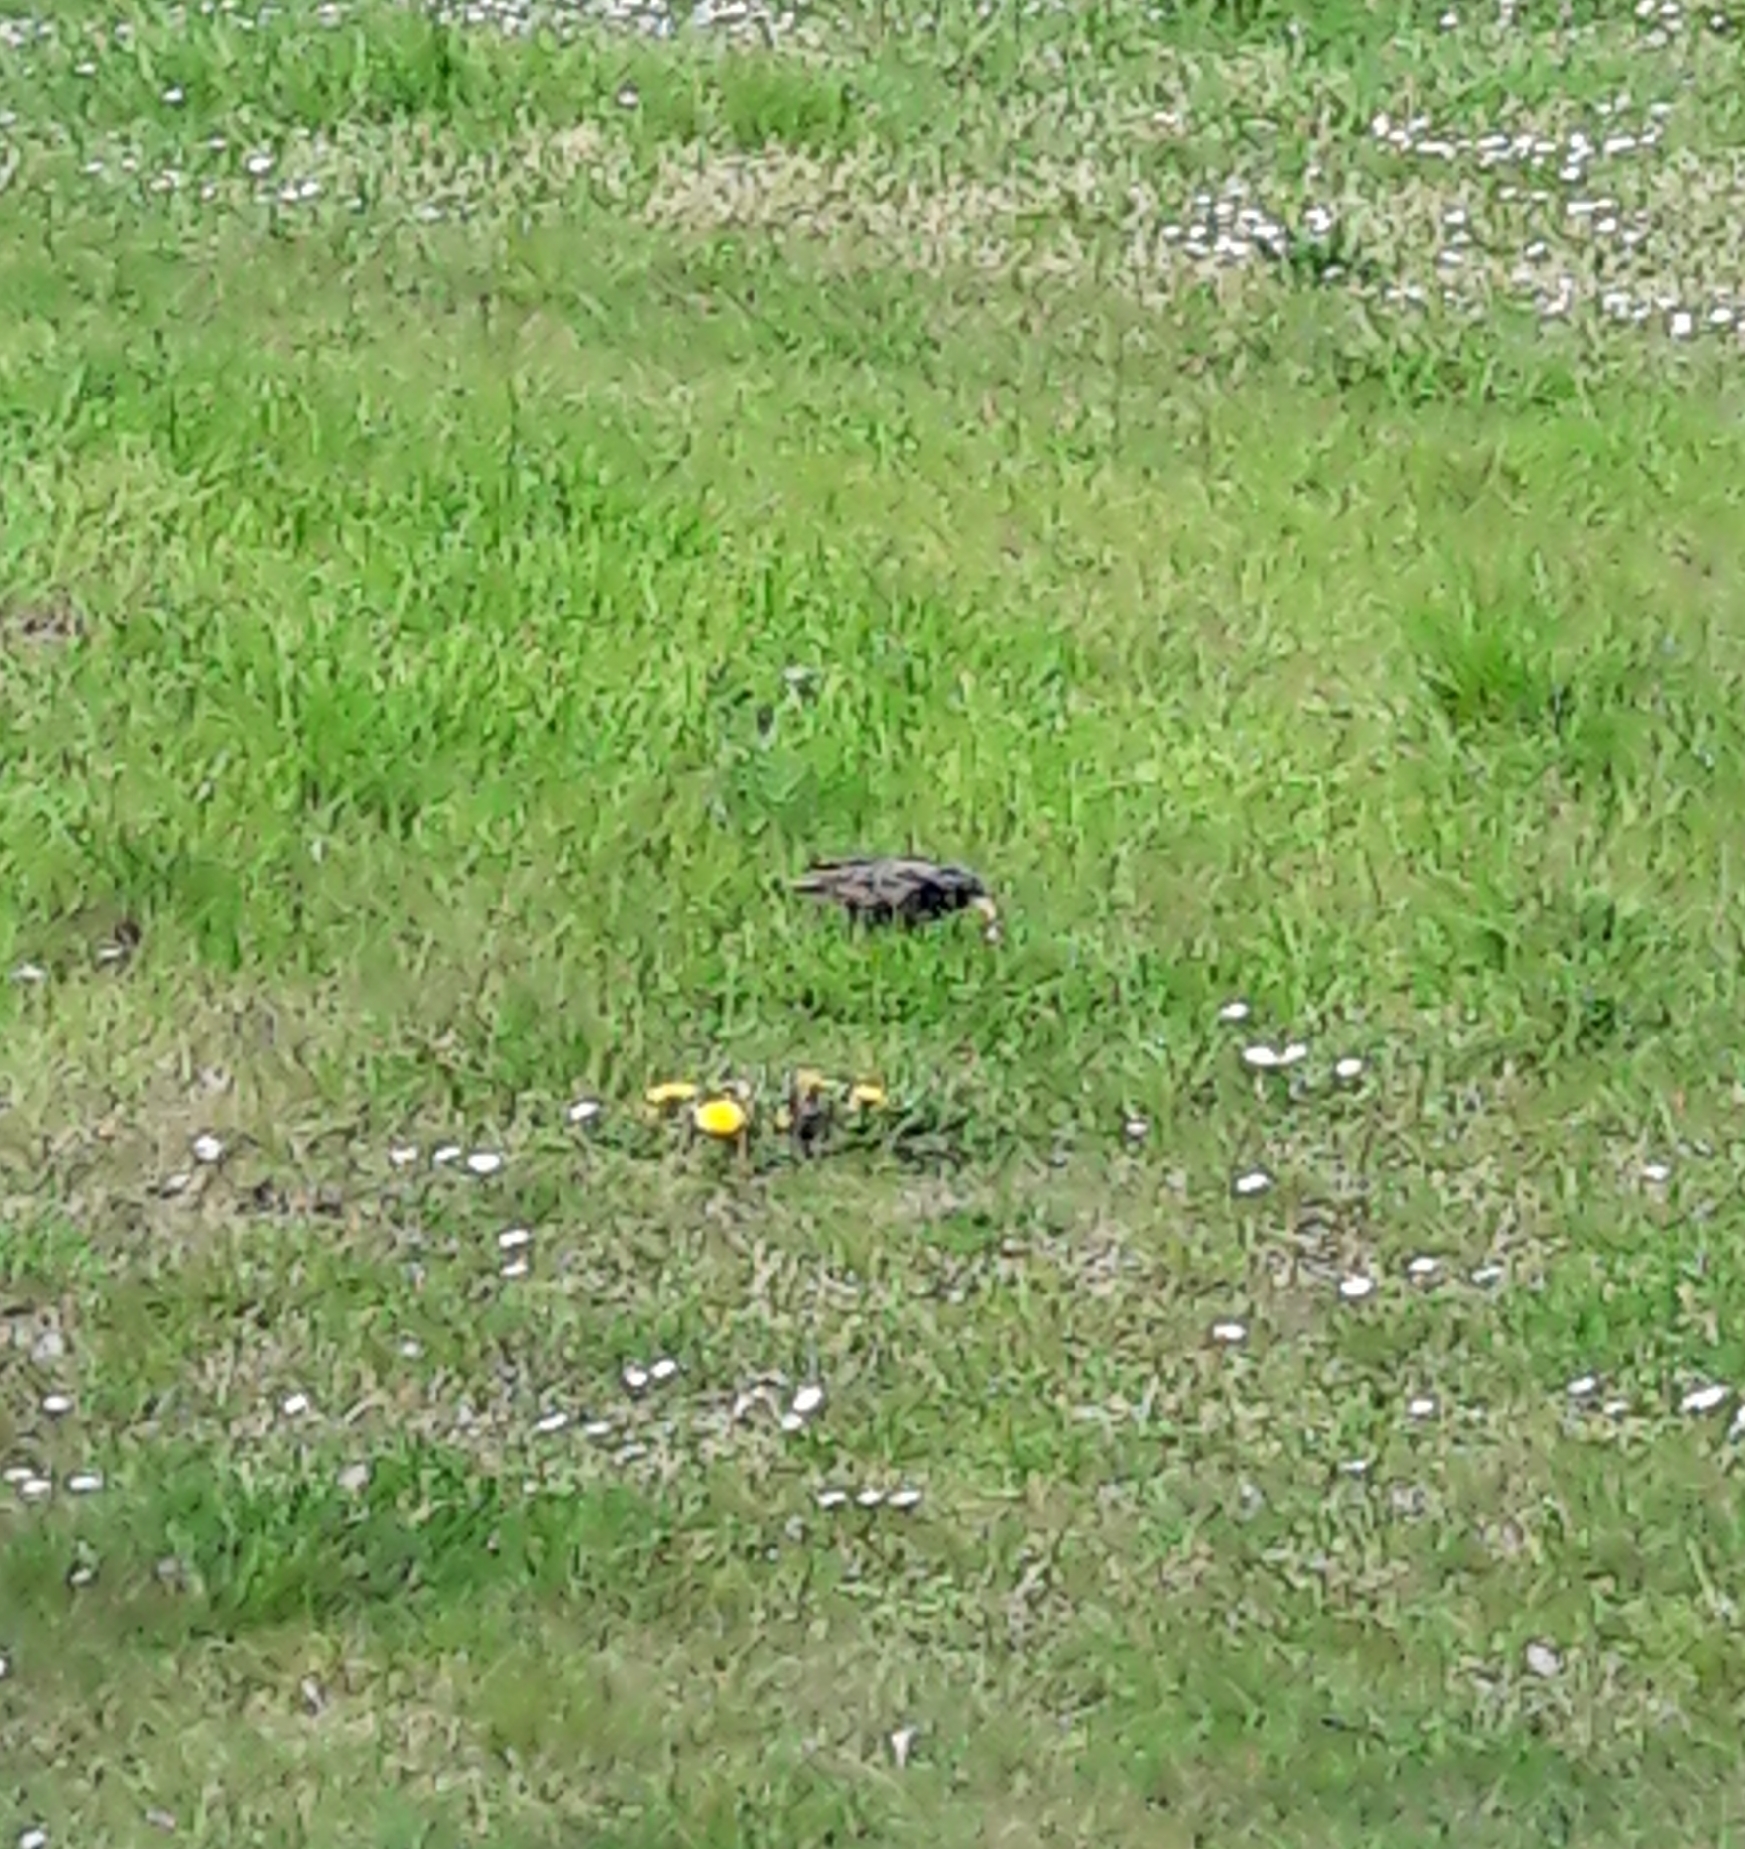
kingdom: Animalia
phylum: Chordata
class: Aves
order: Passeriformes
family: Sturnidae
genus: Sturnus
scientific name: Sturnus vulgaris
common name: Common starling
